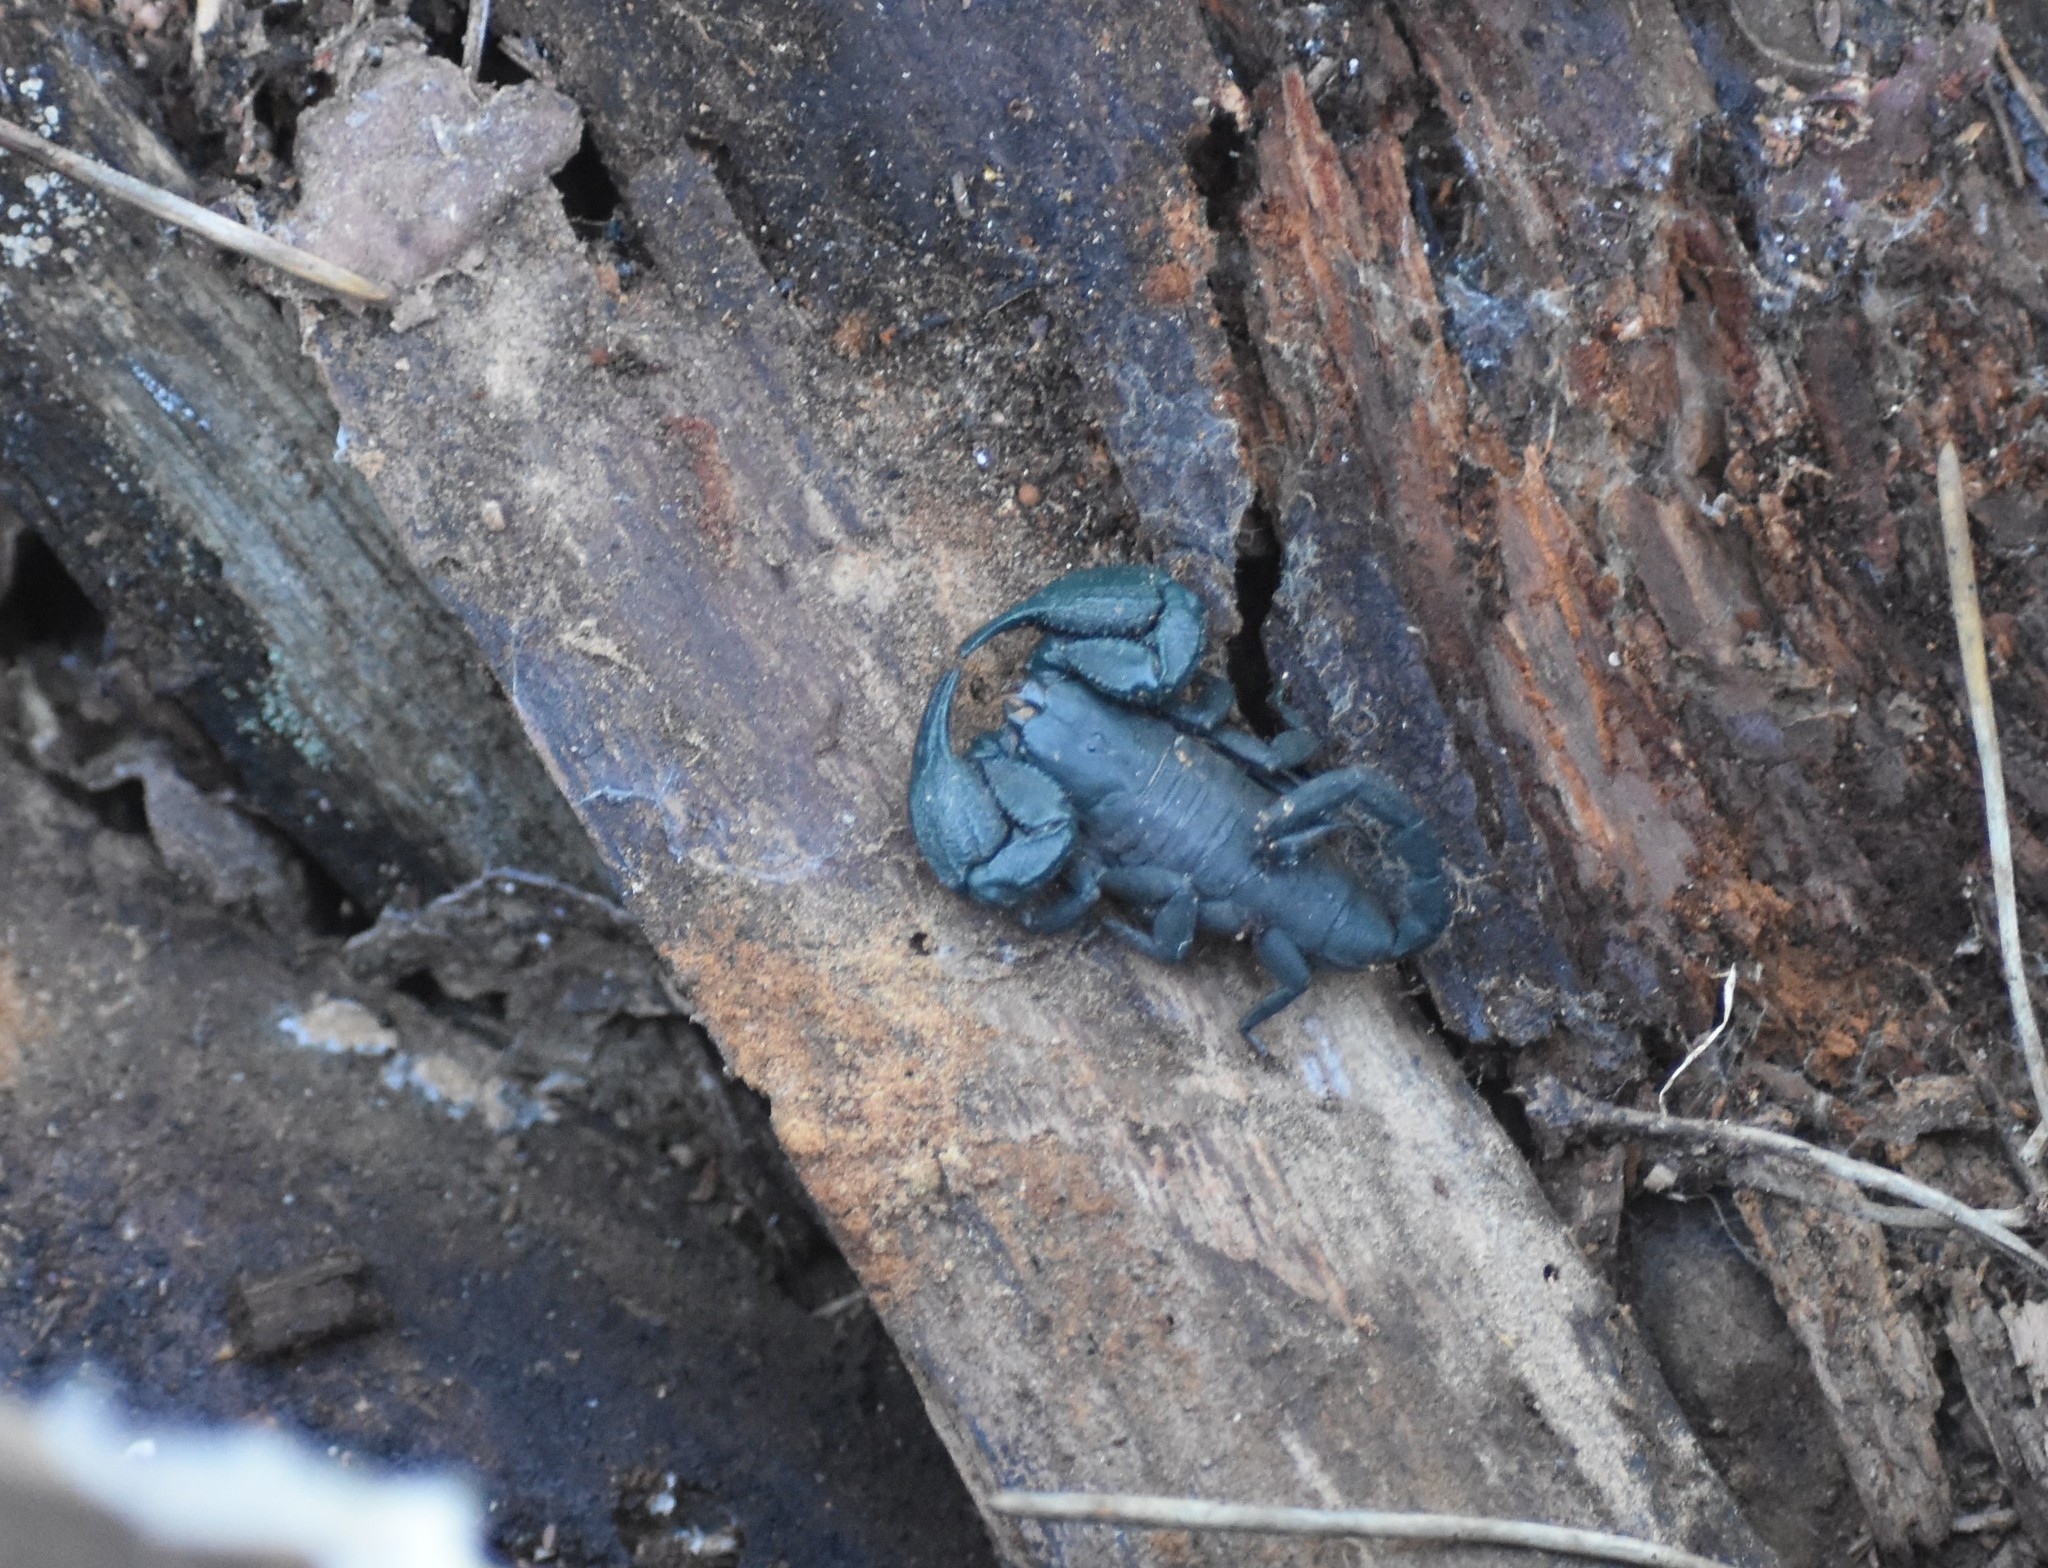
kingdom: Animalia
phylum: Arthropoda
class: Arachnida
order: Scorpiones
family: Hormuridae
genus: Opisthacanthus
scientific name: Opisthacanthus capensis
